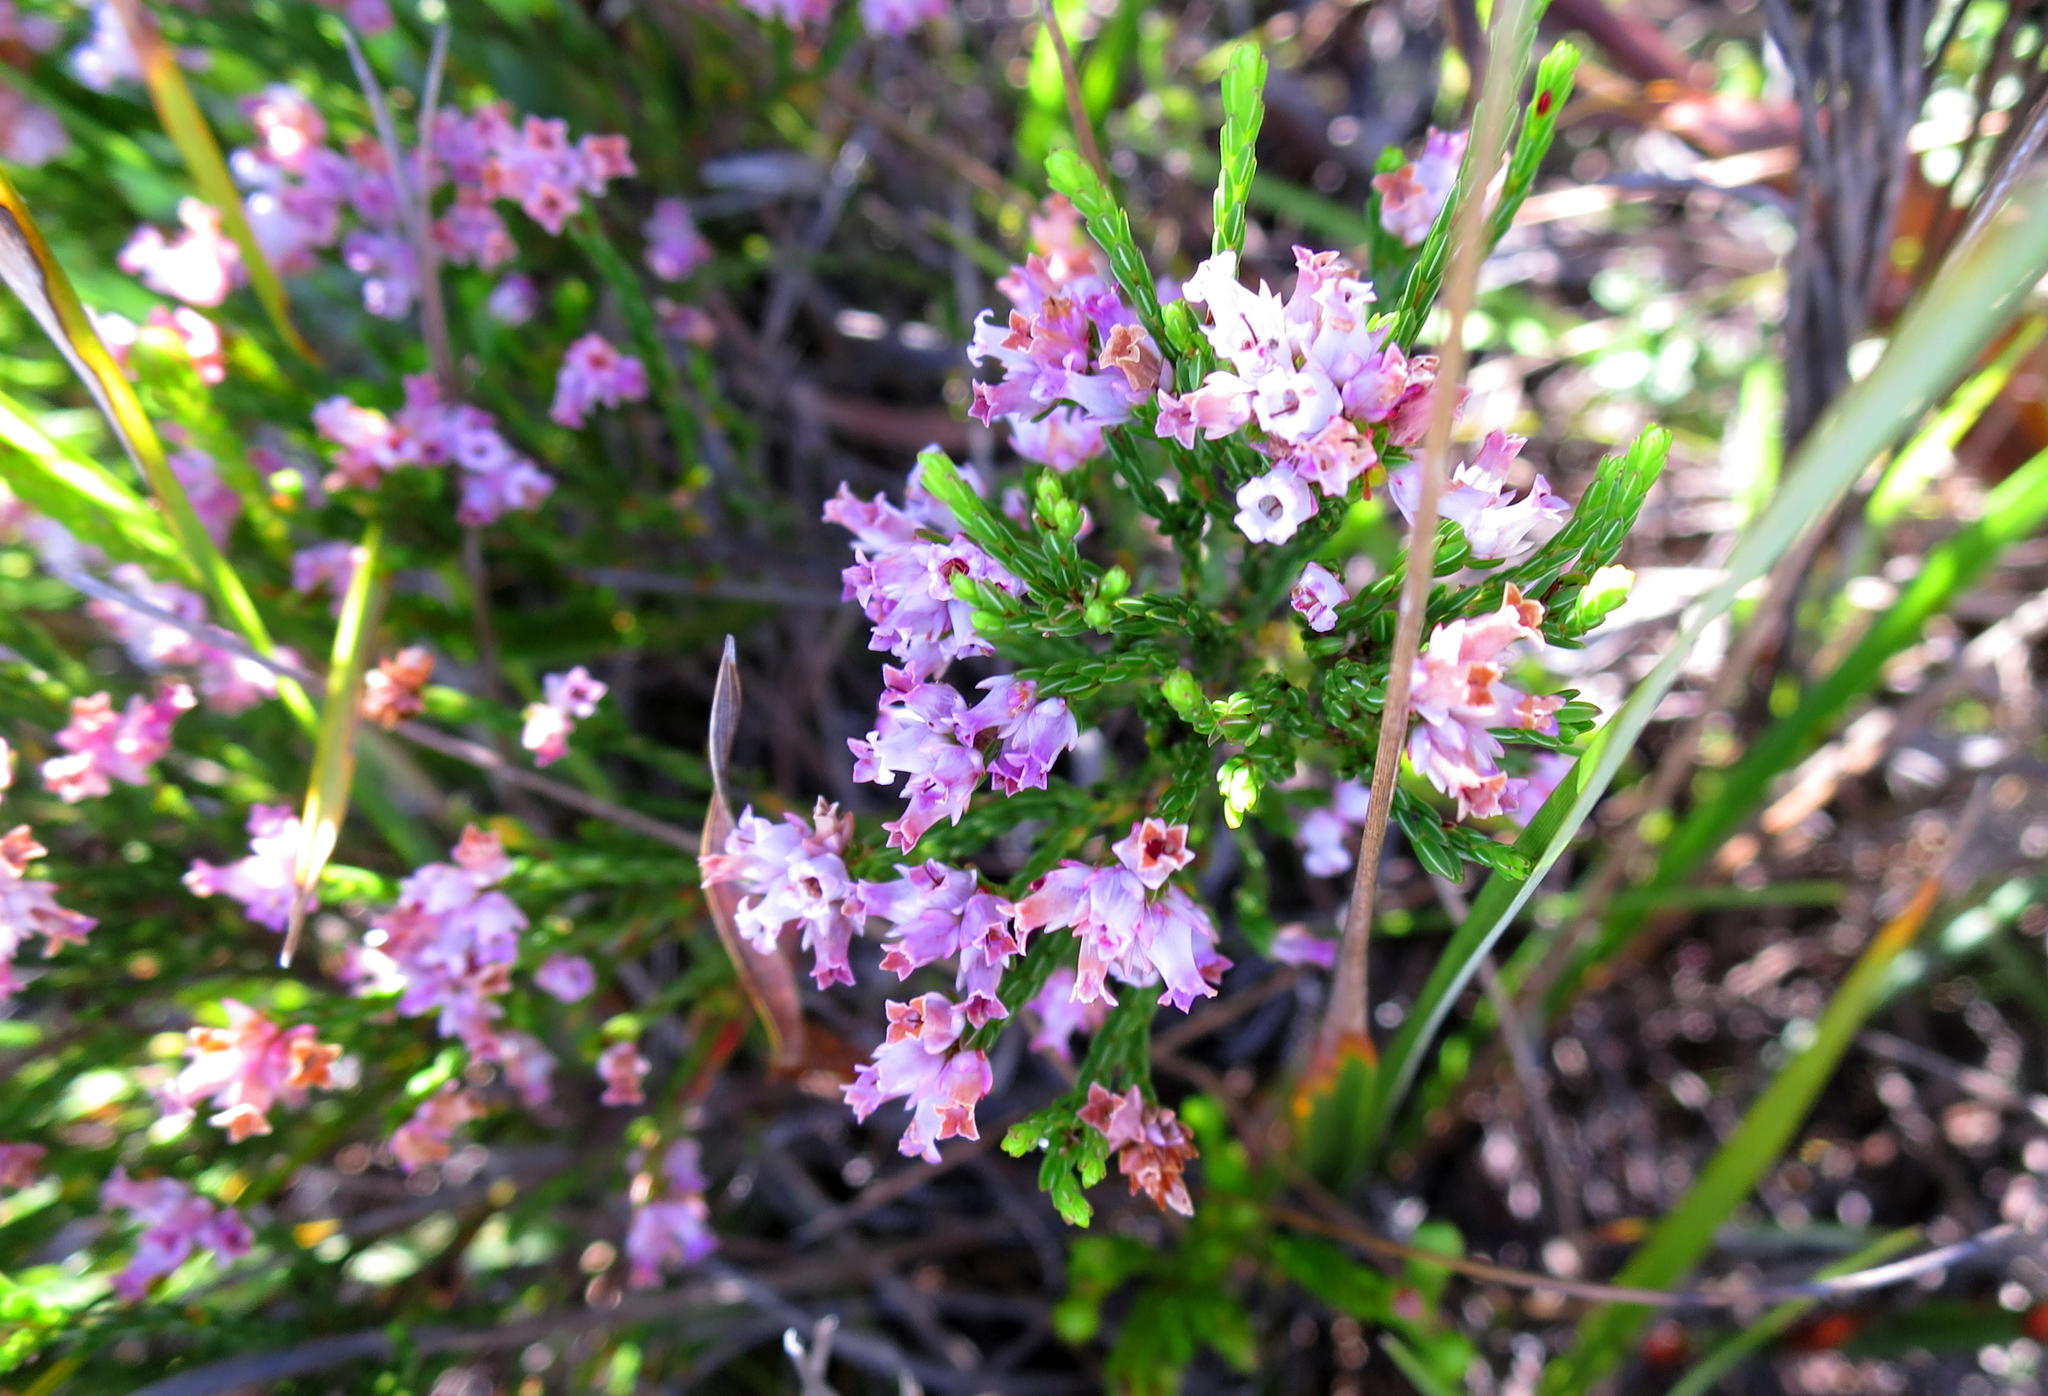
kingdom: Plantae
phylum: Tracheophyta
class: Magnoliopsida
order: Ericales
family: Ericaceae
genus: Erica
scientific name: Erica steinbergiana
